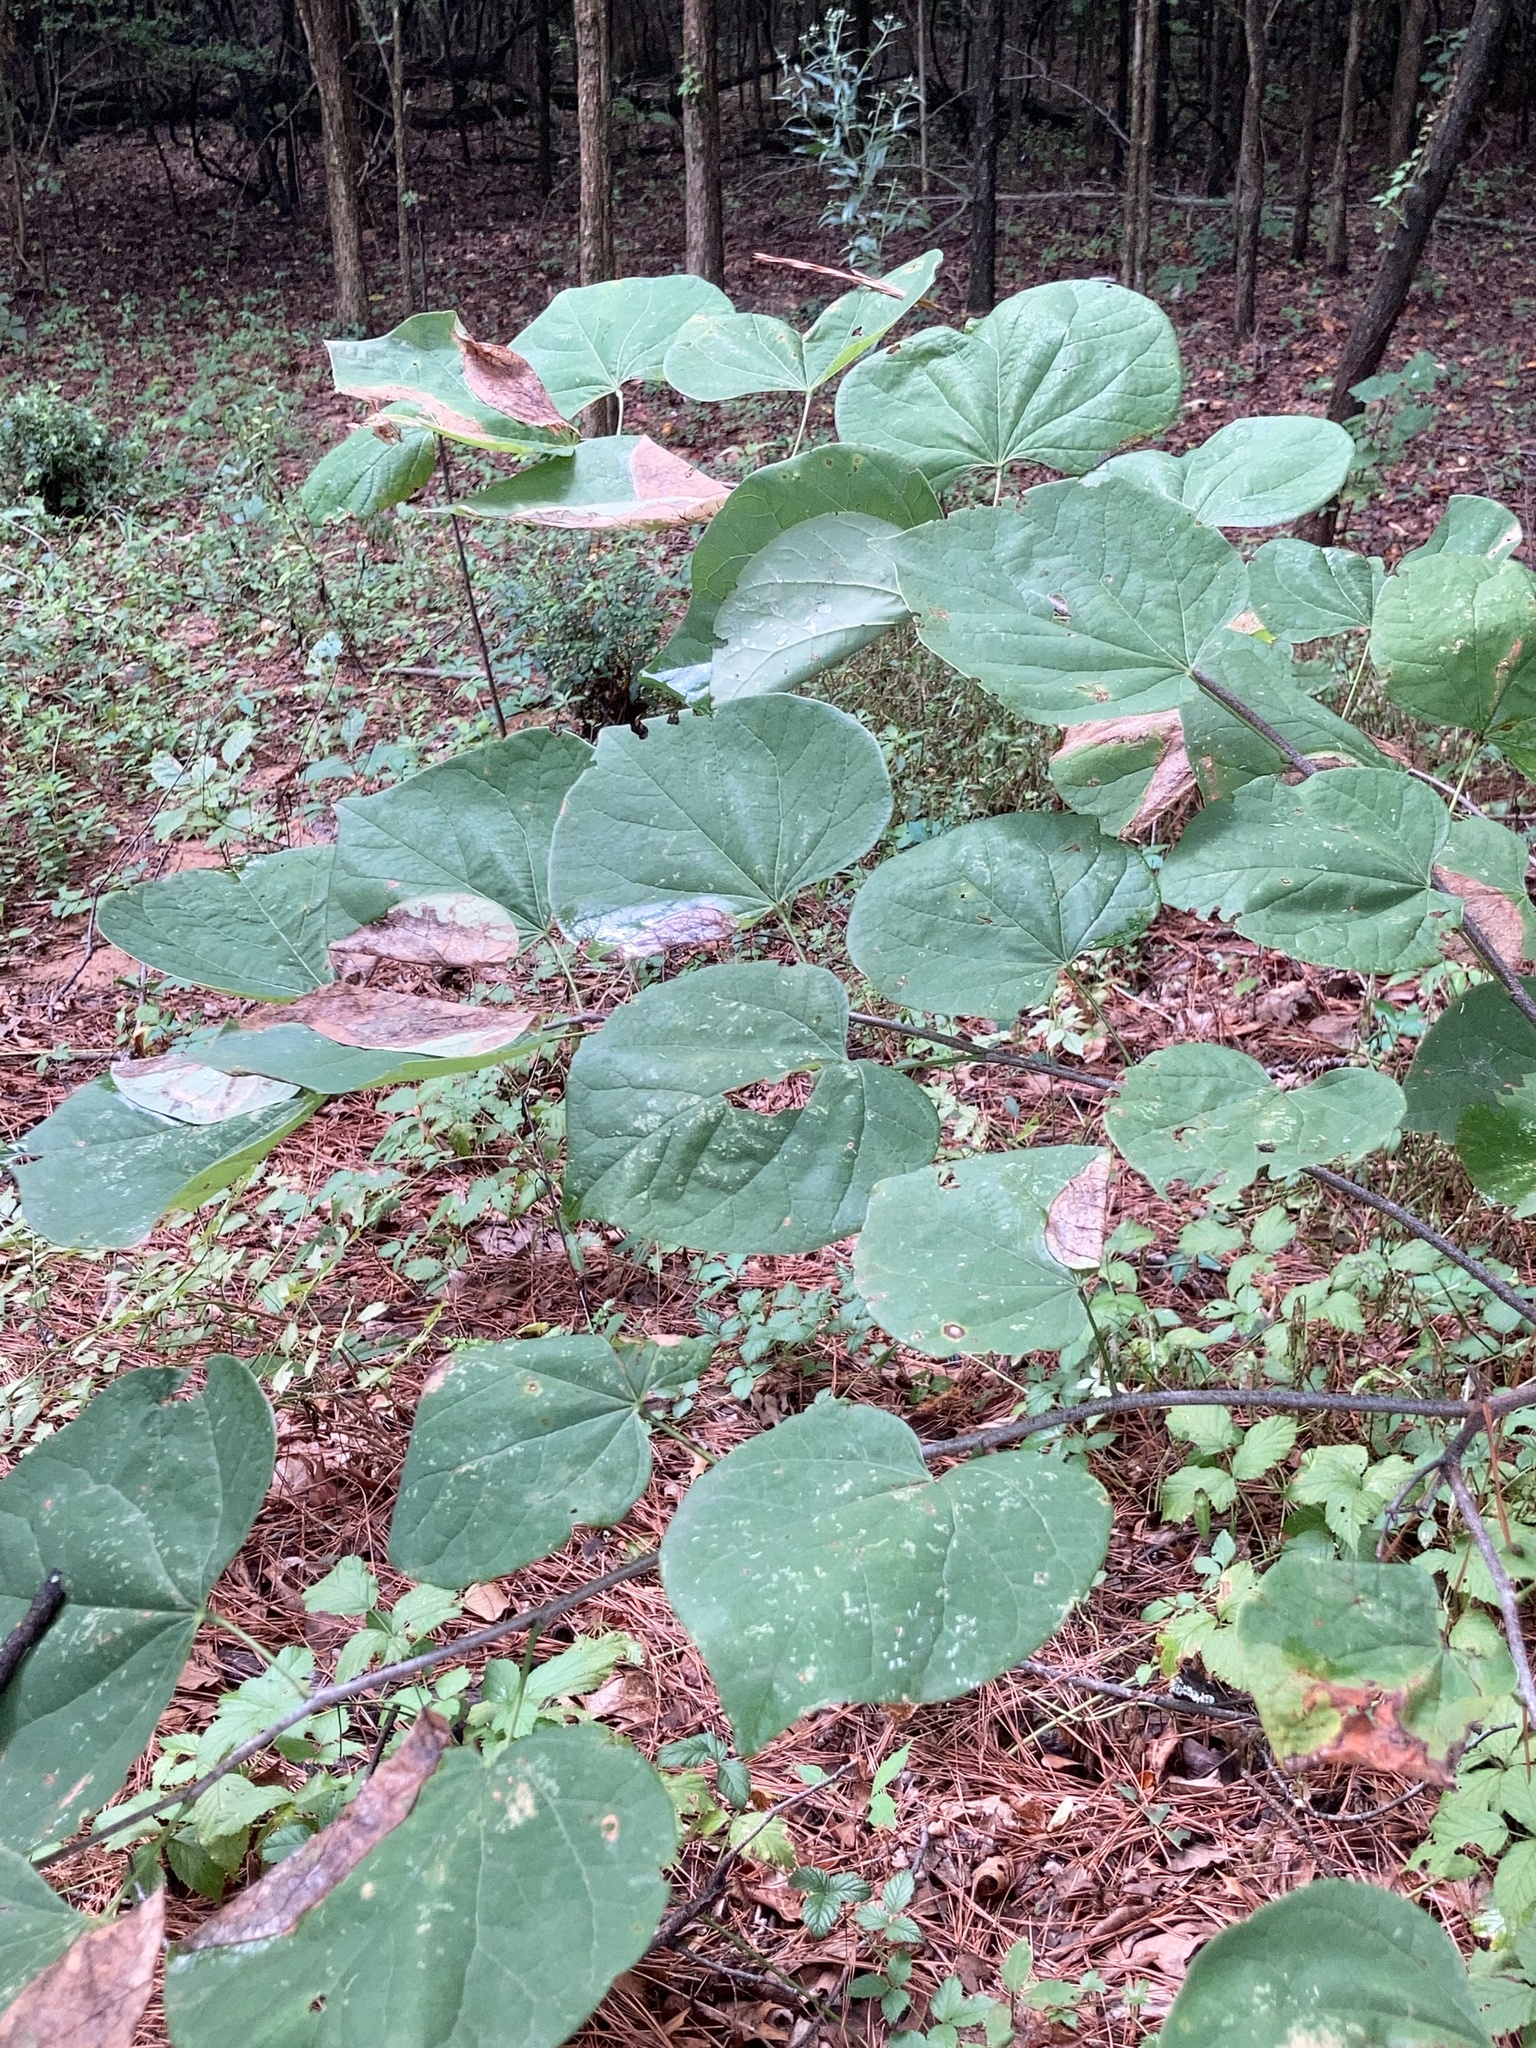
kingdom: Plantae
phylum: Tracheophyta
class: Magnoliopsida
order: Fabales
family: Fabaceae
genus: Cercis
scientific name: Cercis canadensis
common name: Eastern redbud
